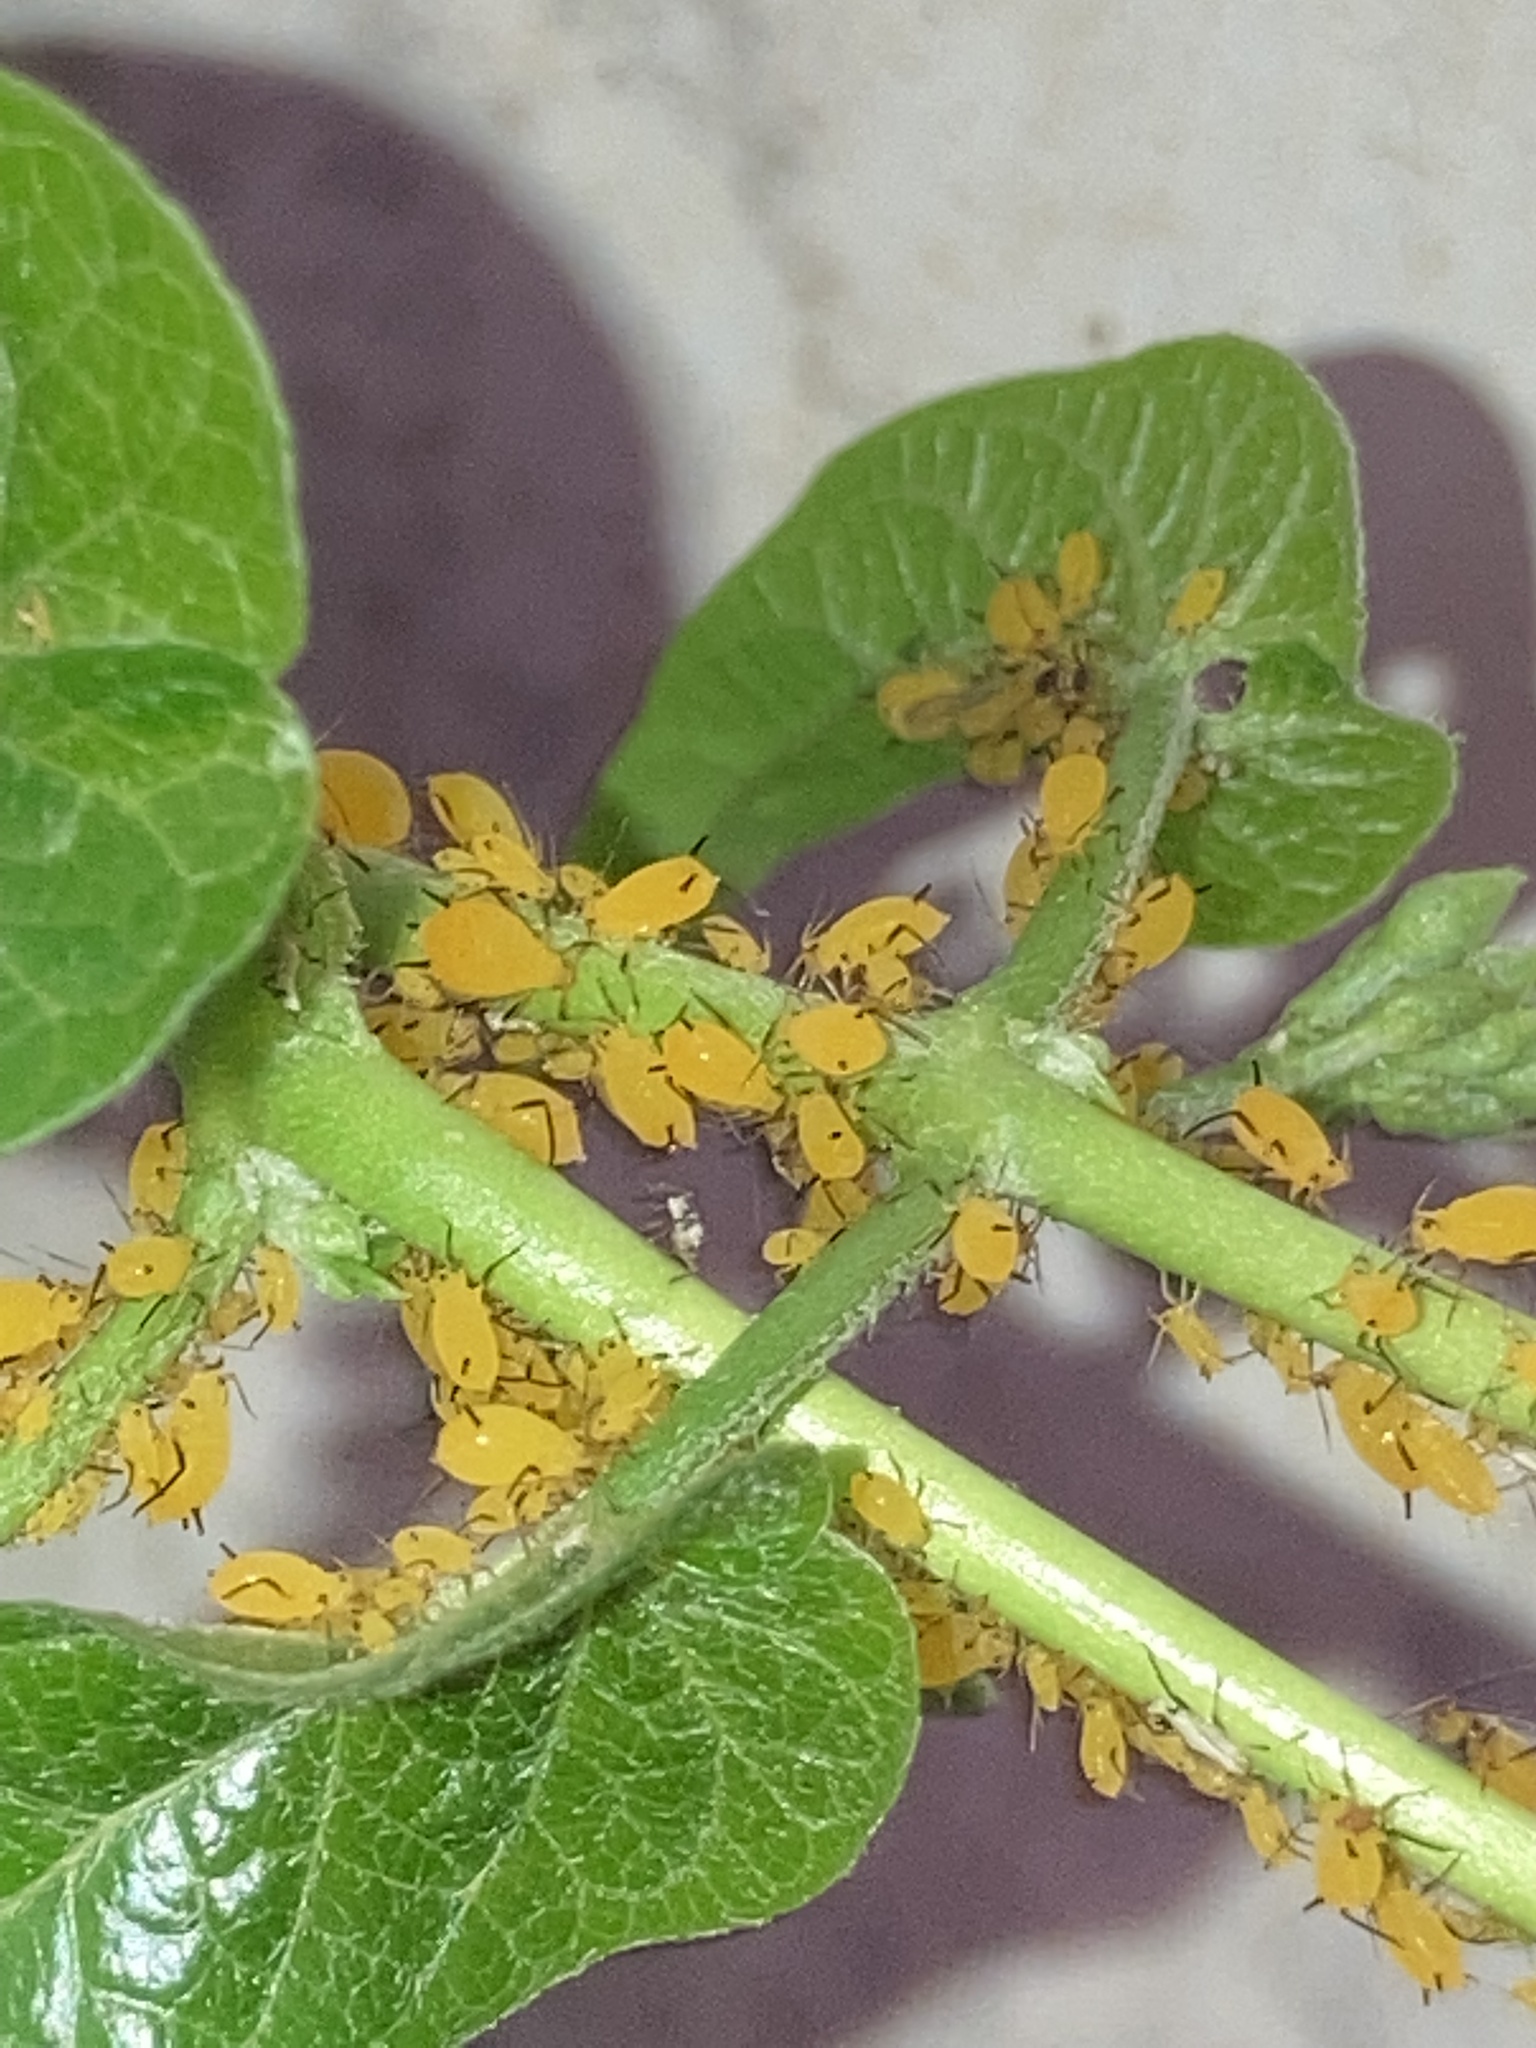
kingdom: Animalia
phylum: Arthropoda
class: Insecta
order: Hemiptera
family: Aphididae
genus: Aphis
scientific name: Aphis nerii
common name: Oleander aphid
